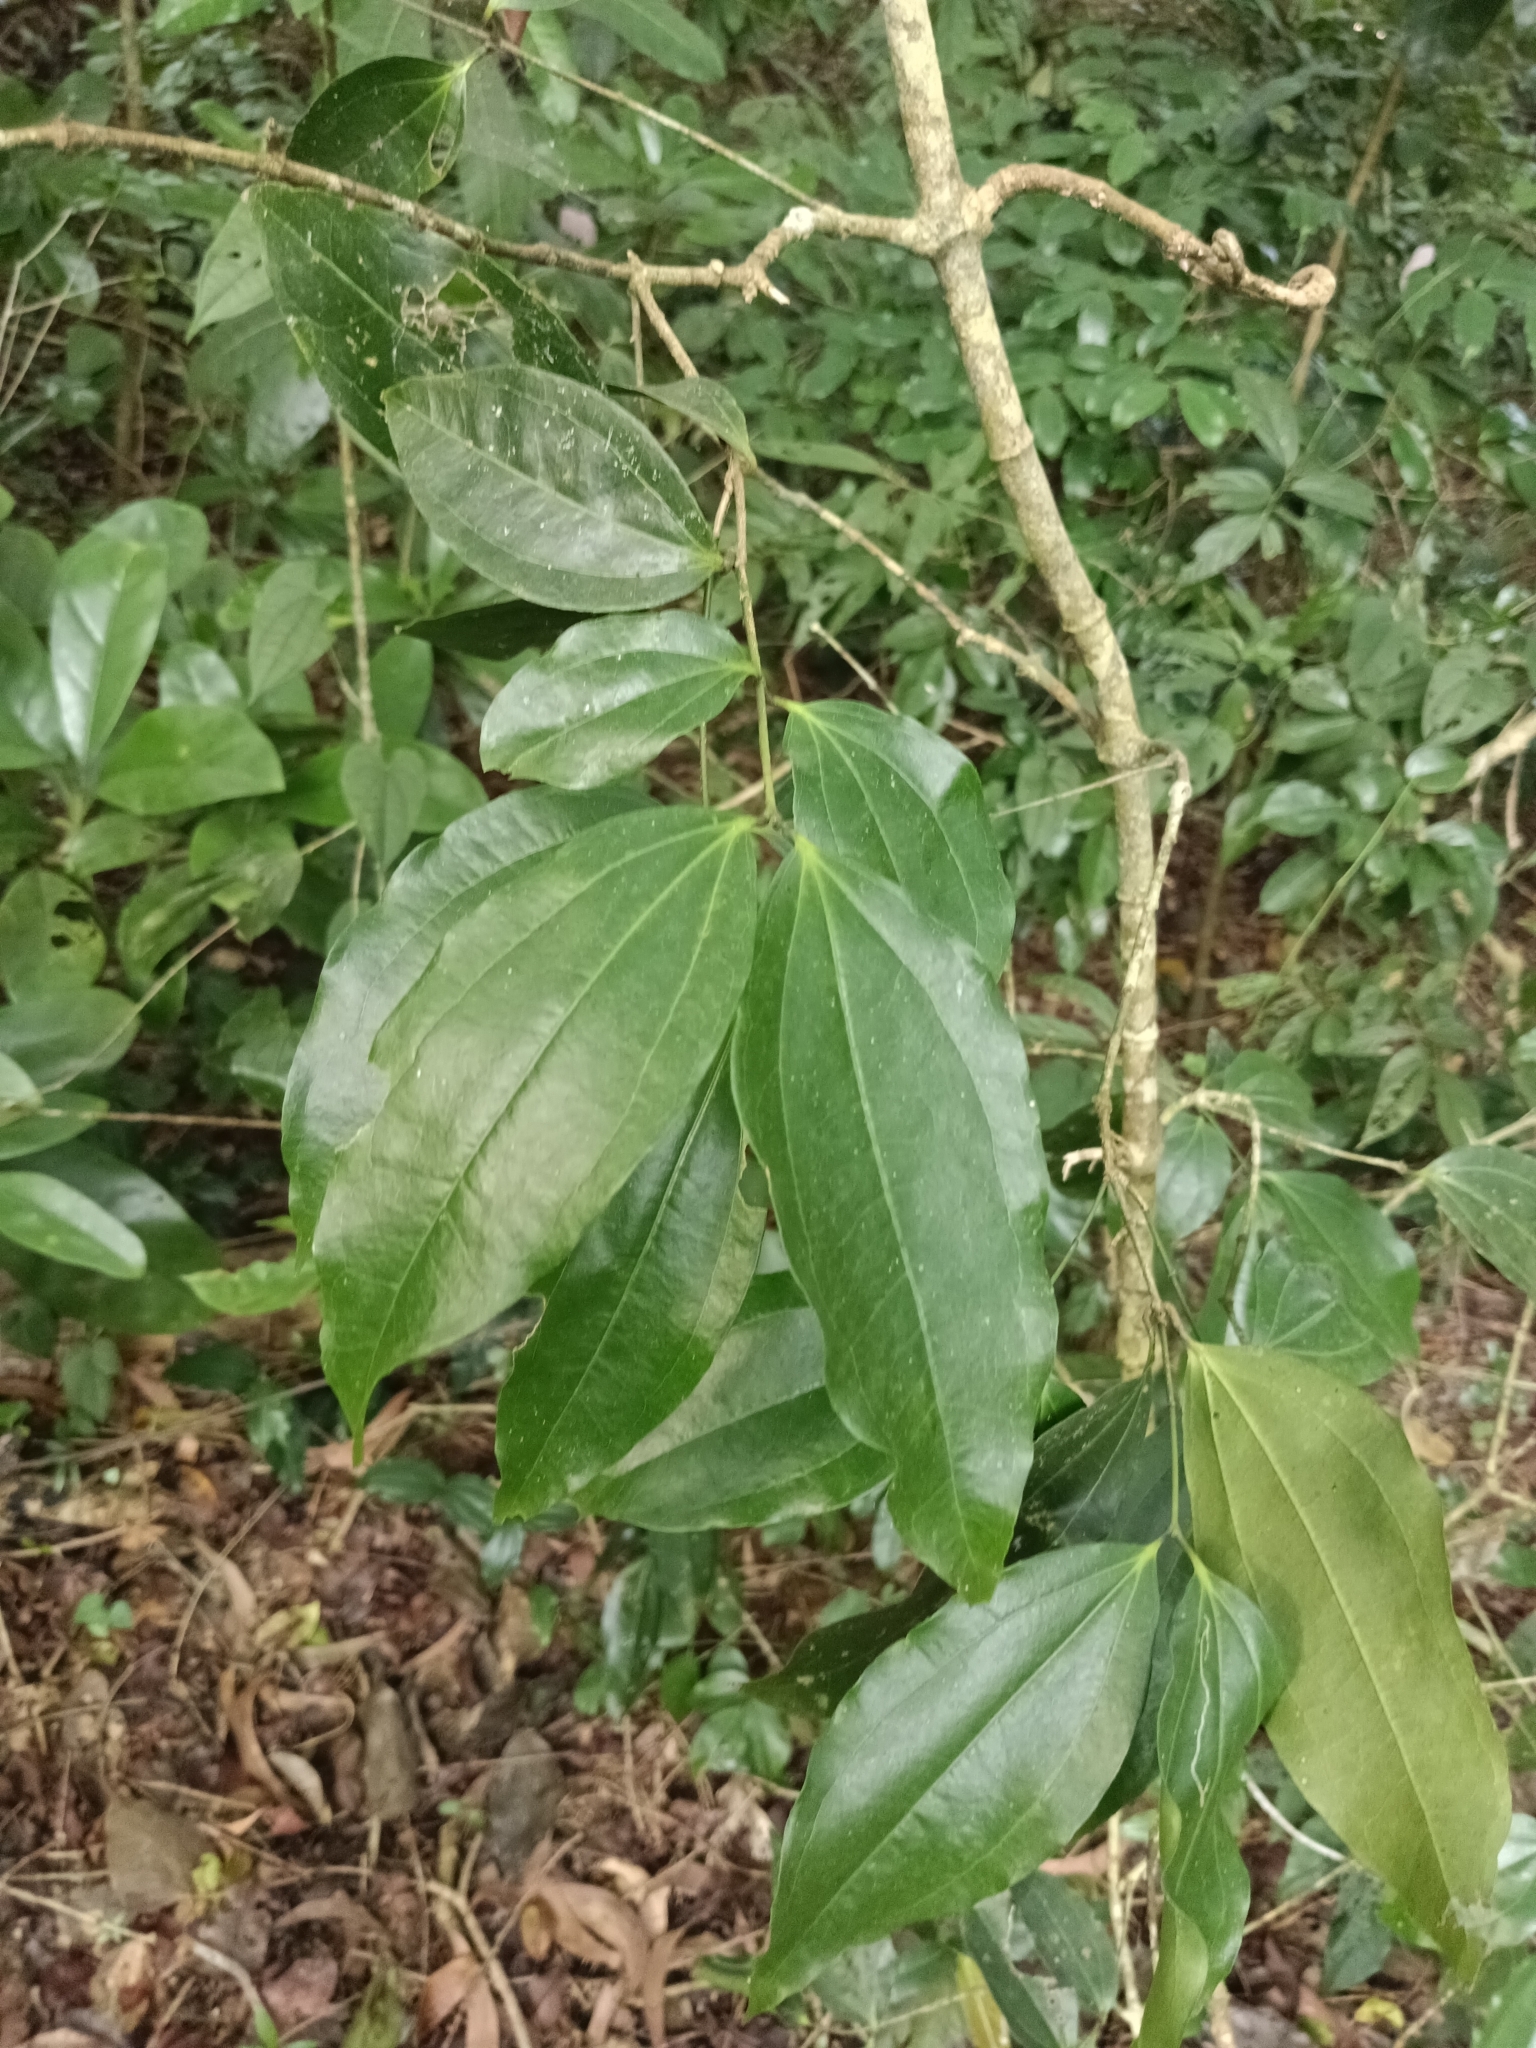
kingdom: Plantae
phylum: Tracheophyta
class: Magnoliopsida
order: Ranunculales
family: Menispermaceae
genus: Tiliacora
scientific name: Tiliacora acuminata
